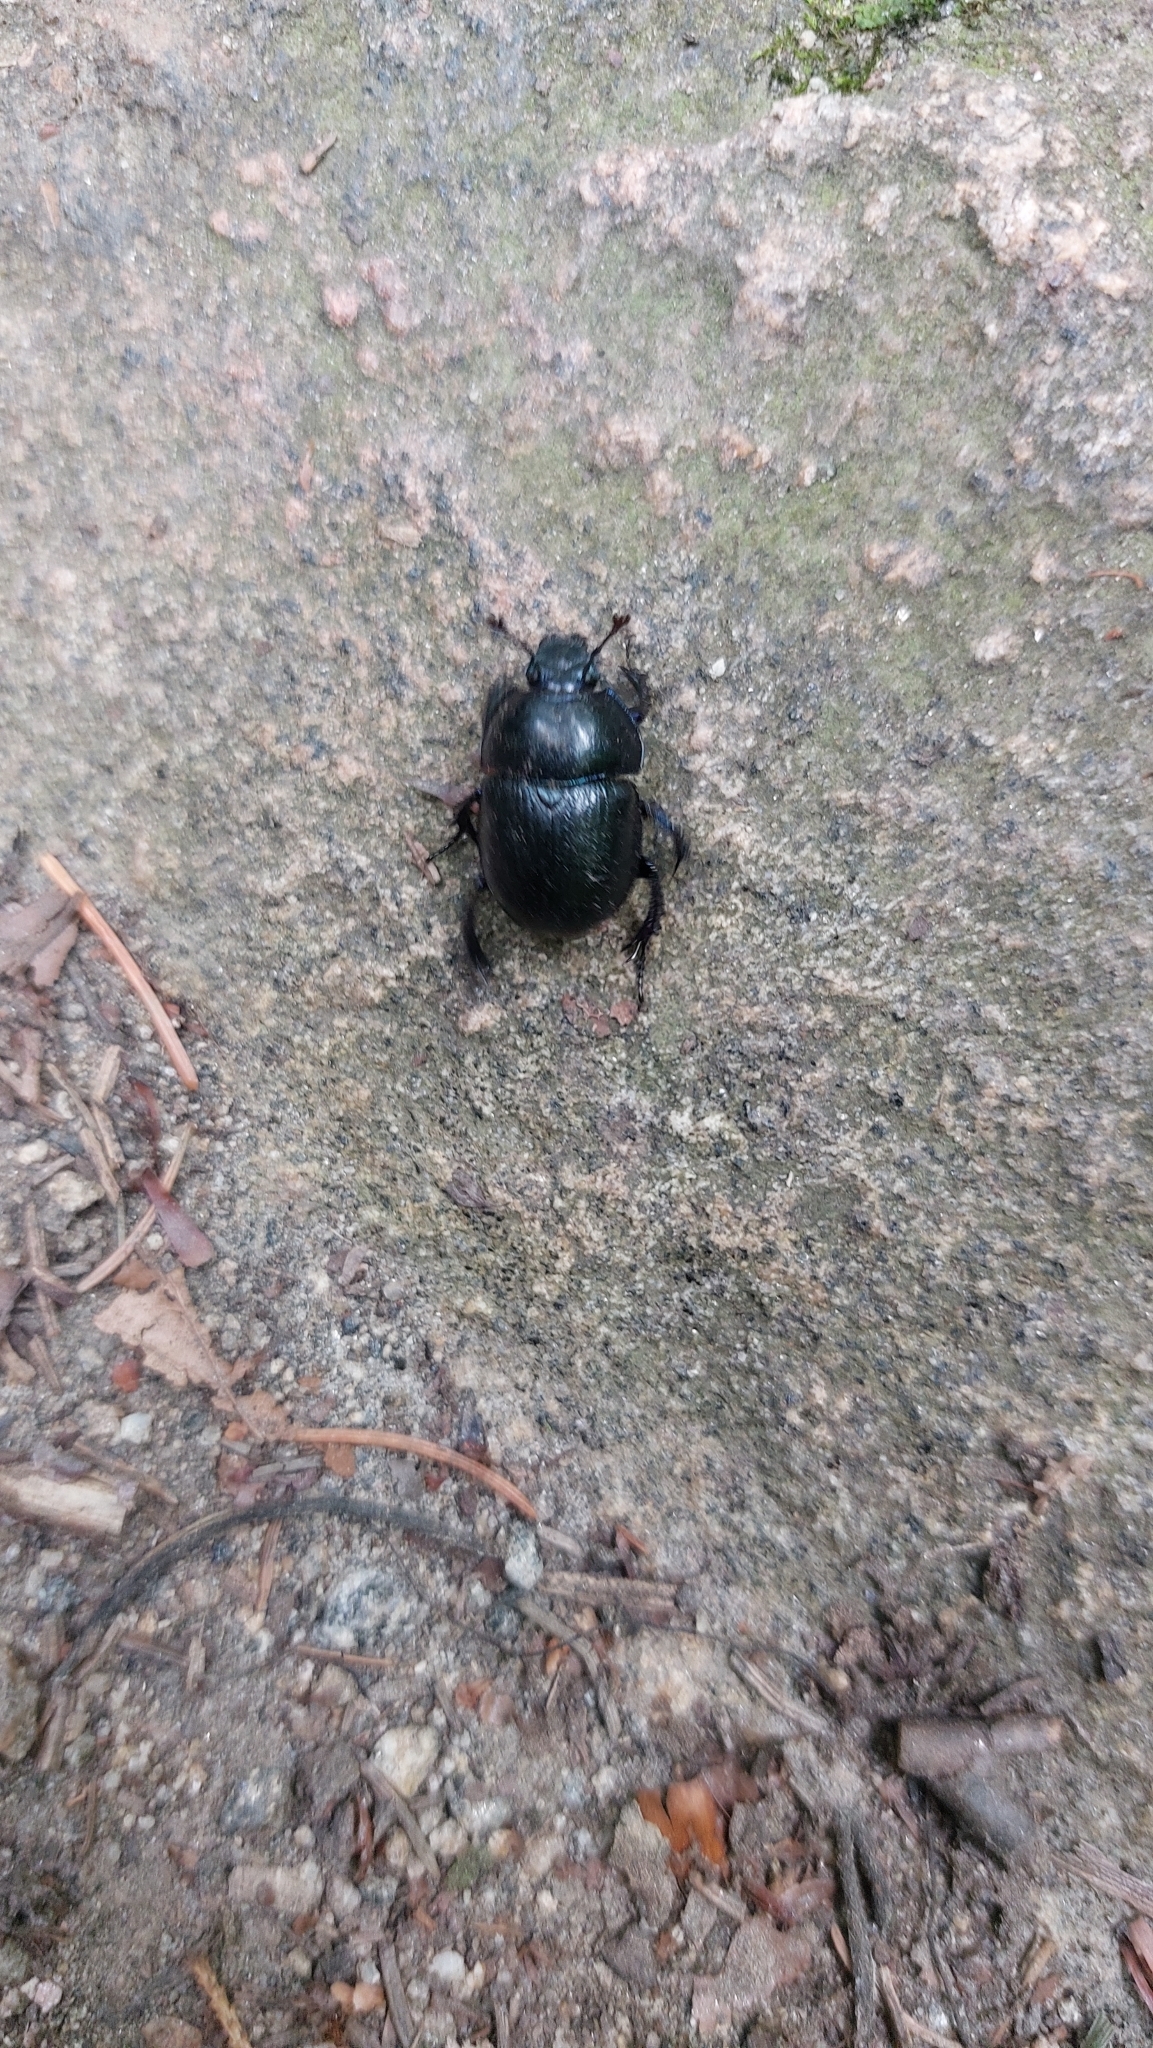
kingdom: Animalia
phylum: Arthropoda
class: Insecta
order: Coleoptera
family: Geotrupidae
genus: Anoplotrupes
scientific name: Anoplotrupes stercorosus
